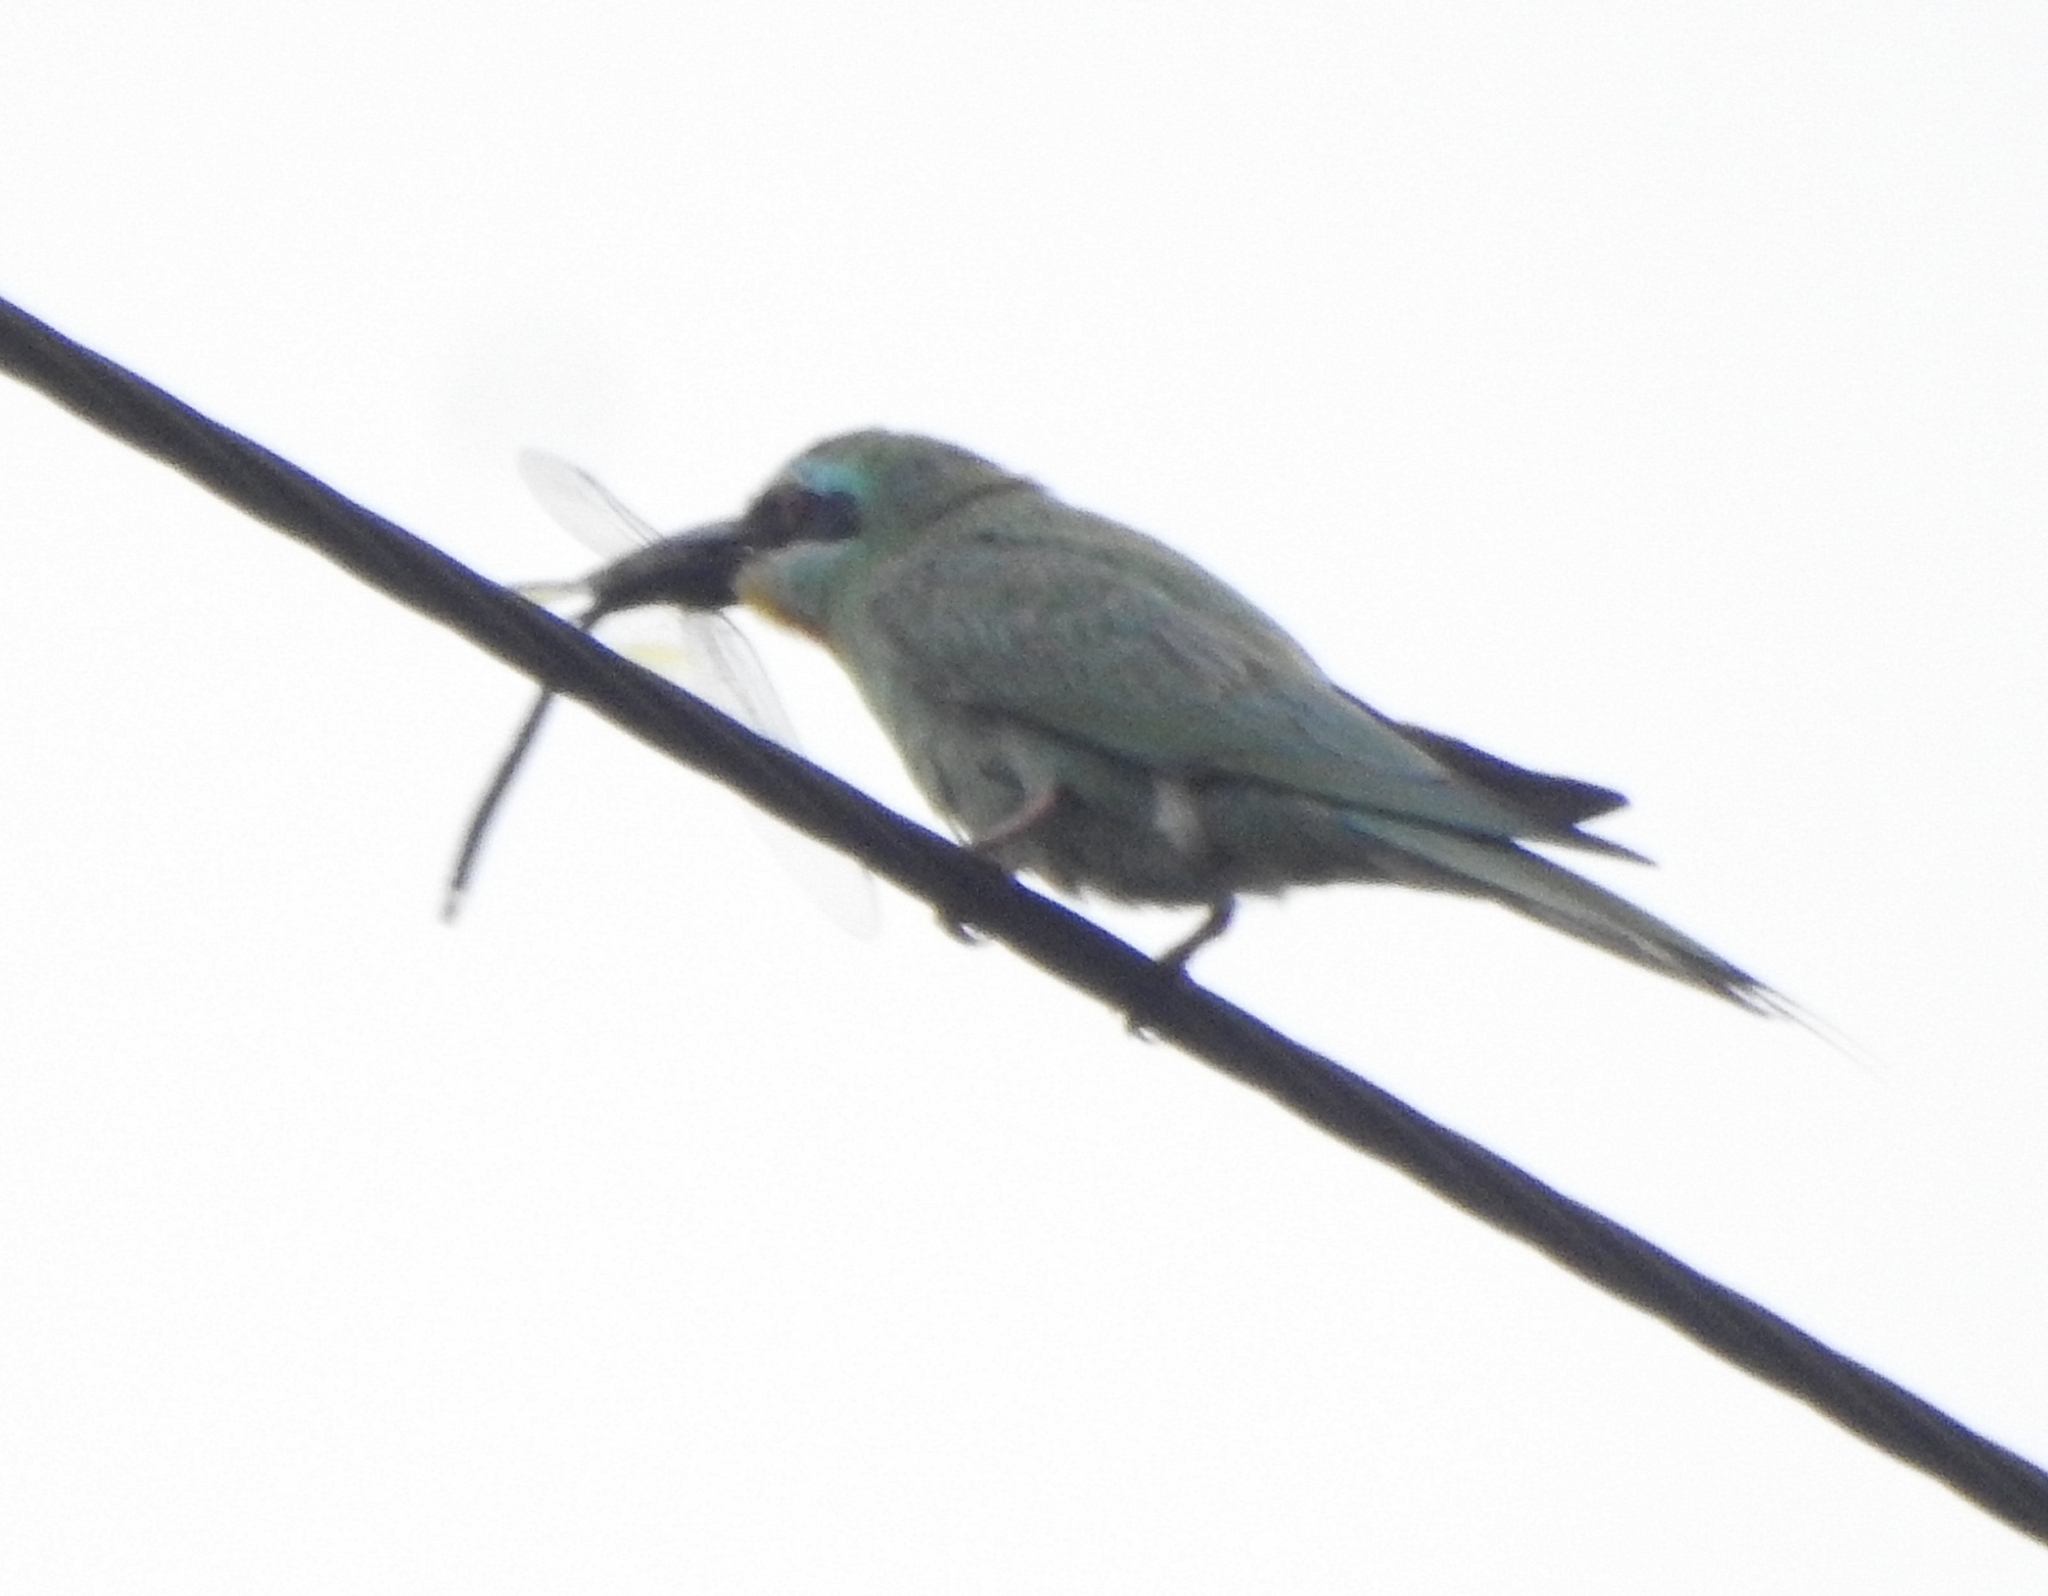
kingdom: Animalia
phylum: Chordata
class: Aves
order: Coraciiformes
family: Meropidae
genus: Merops
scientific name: Merops persicus
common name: Blue-cheeked bee-eater
